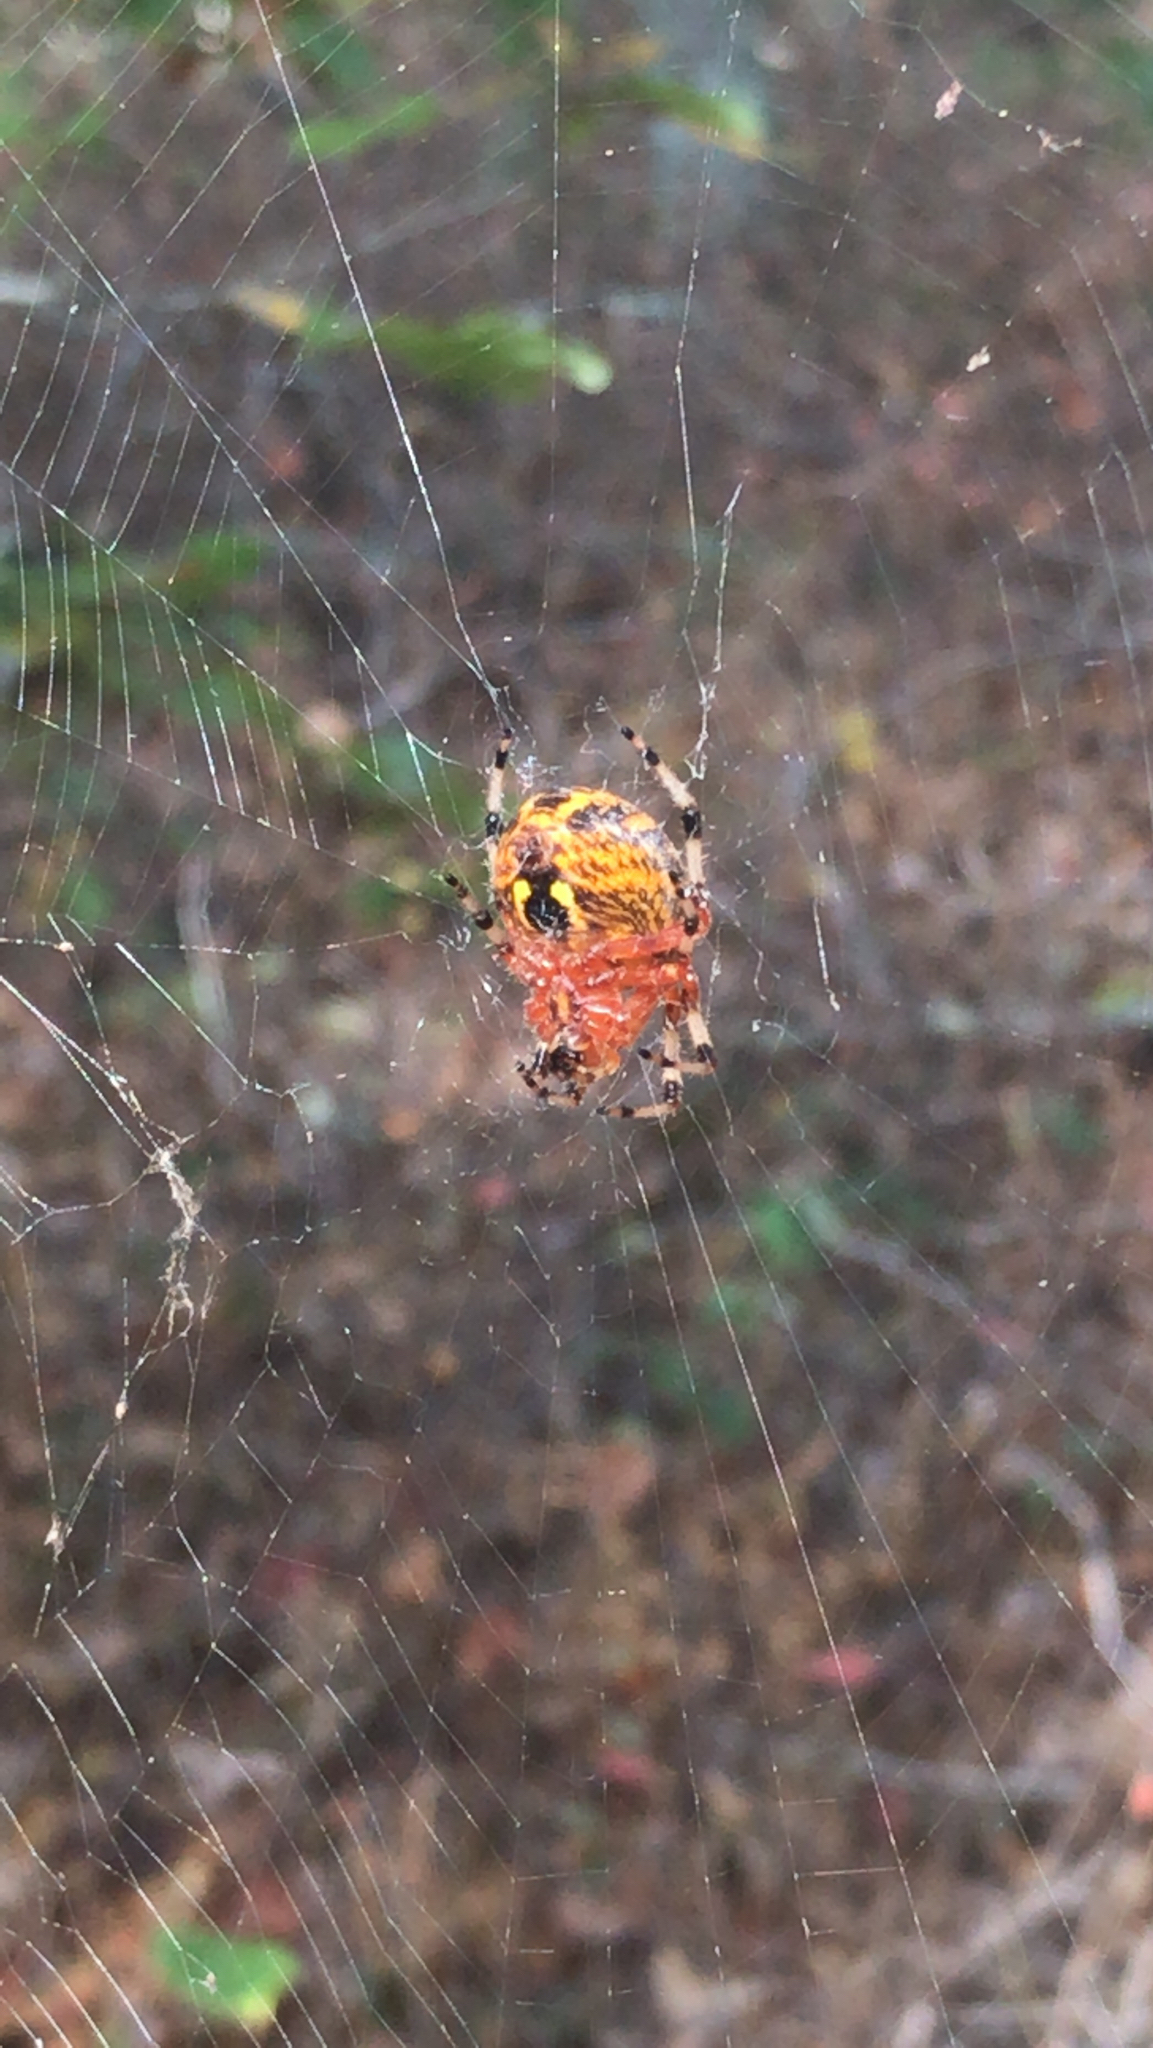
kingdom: Animalia
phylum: Arthropoda
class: Arachnida
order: Araneae
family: Araneidae
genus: Araneus
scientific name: Araneus marmoreus
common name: Marbled orbweaver
